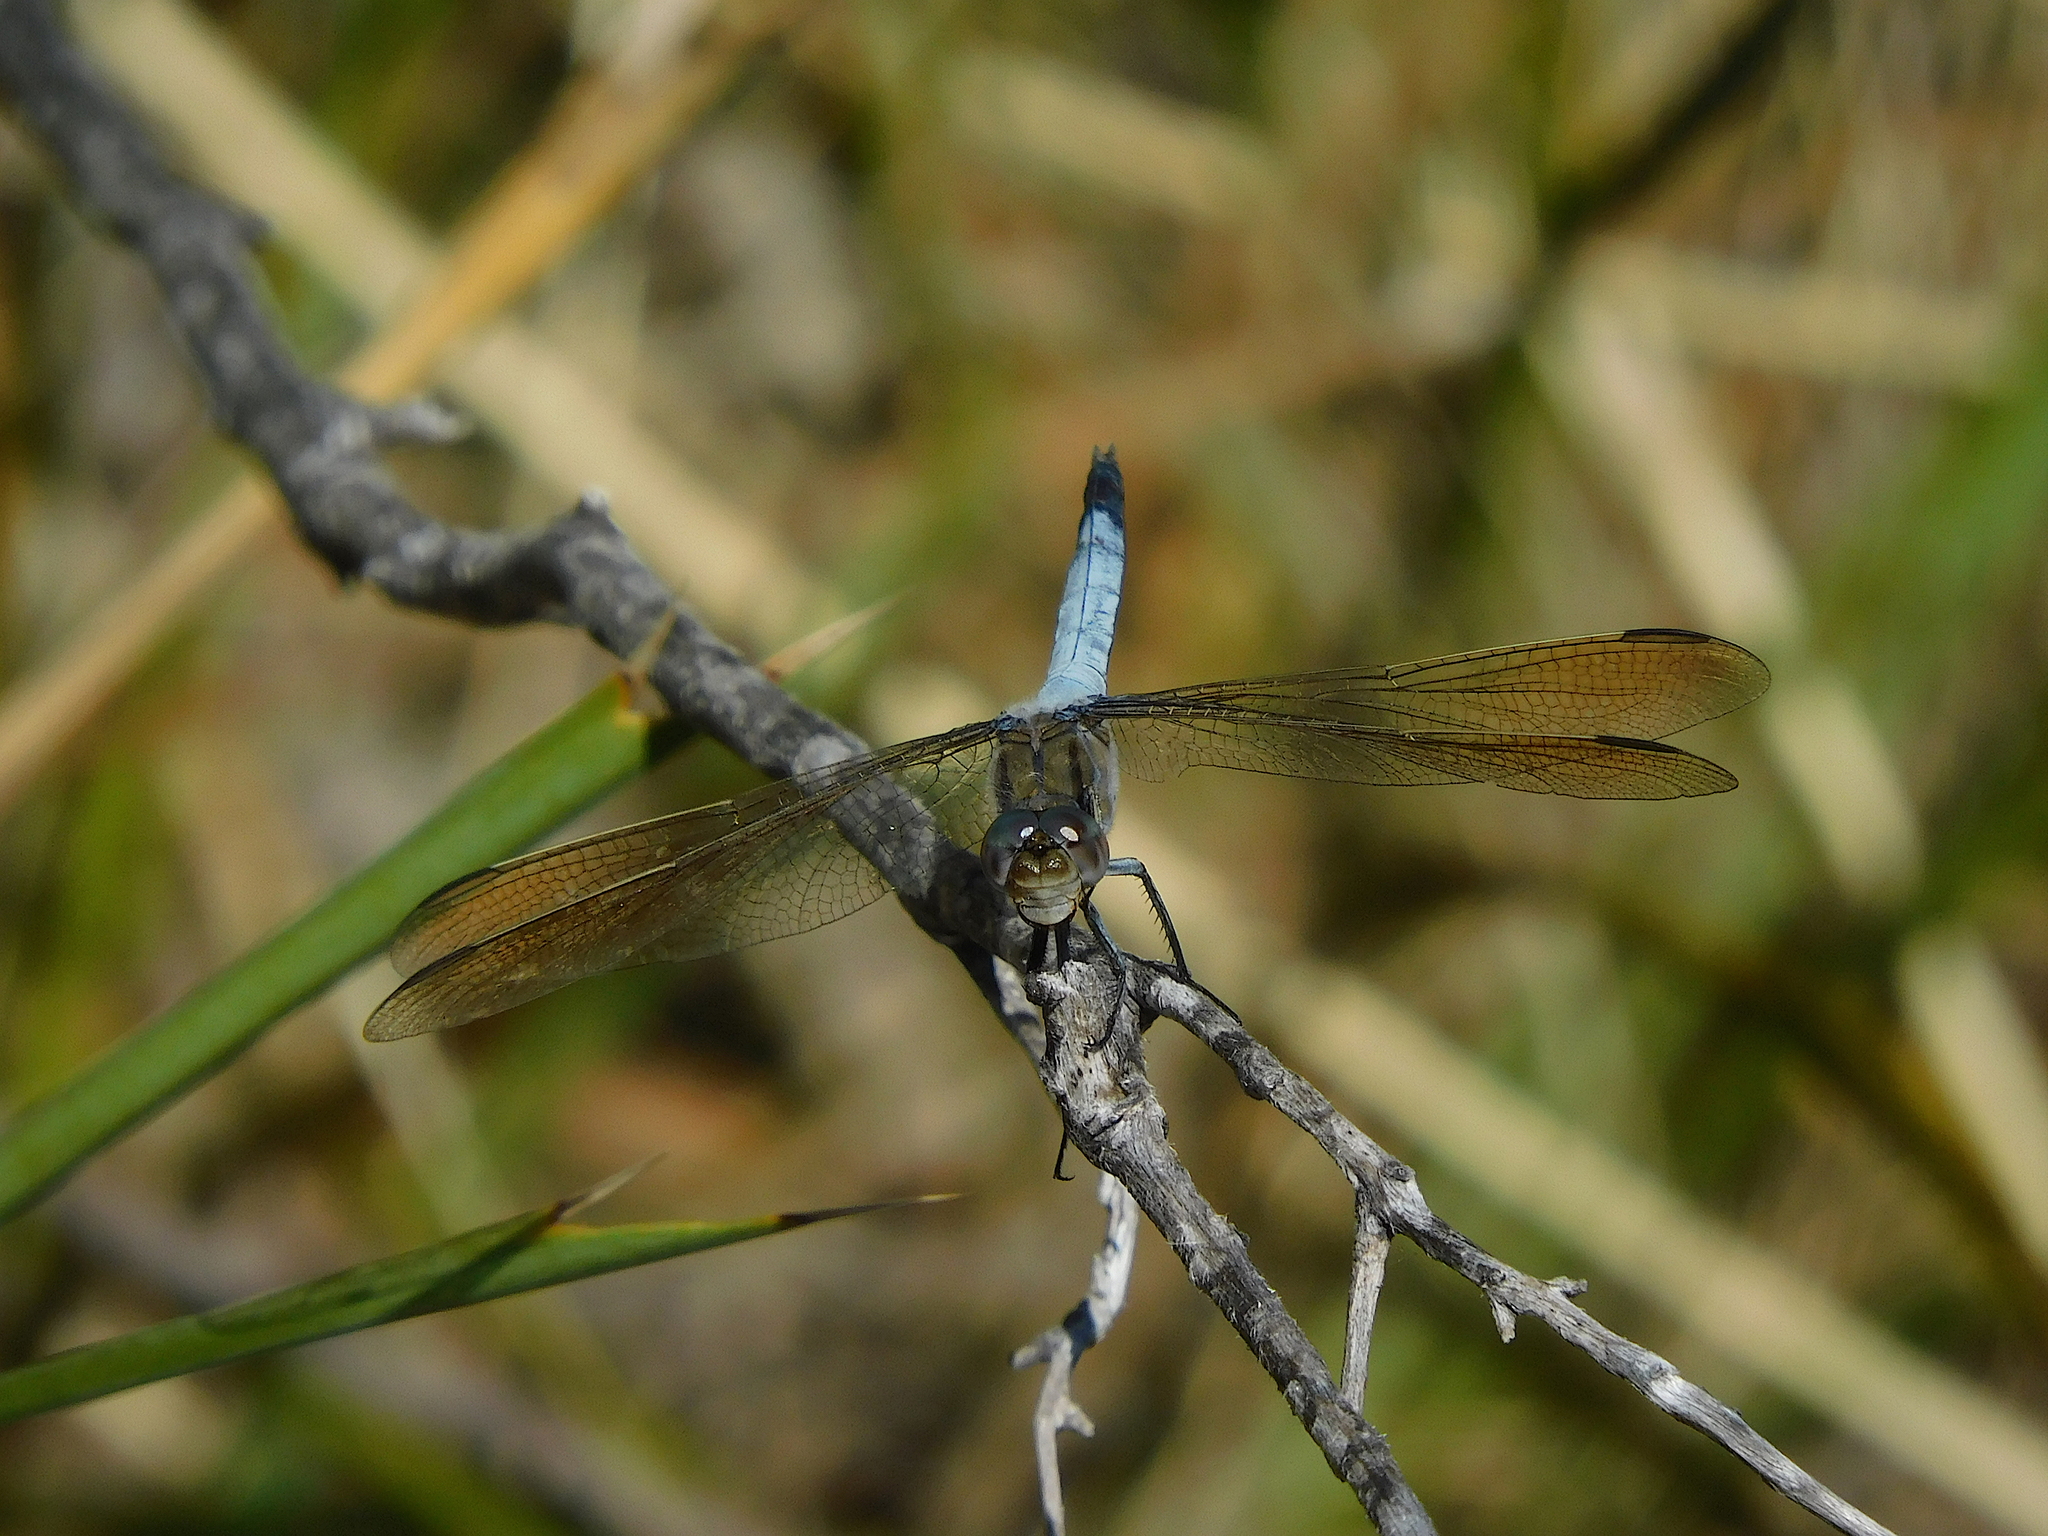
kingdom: Animalia
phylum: Arthropoda
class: Insecta
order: Odonata
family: Libellulidae
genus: Orthetrum
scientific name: Orthetrum caledonicum
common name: Blue skimmer
